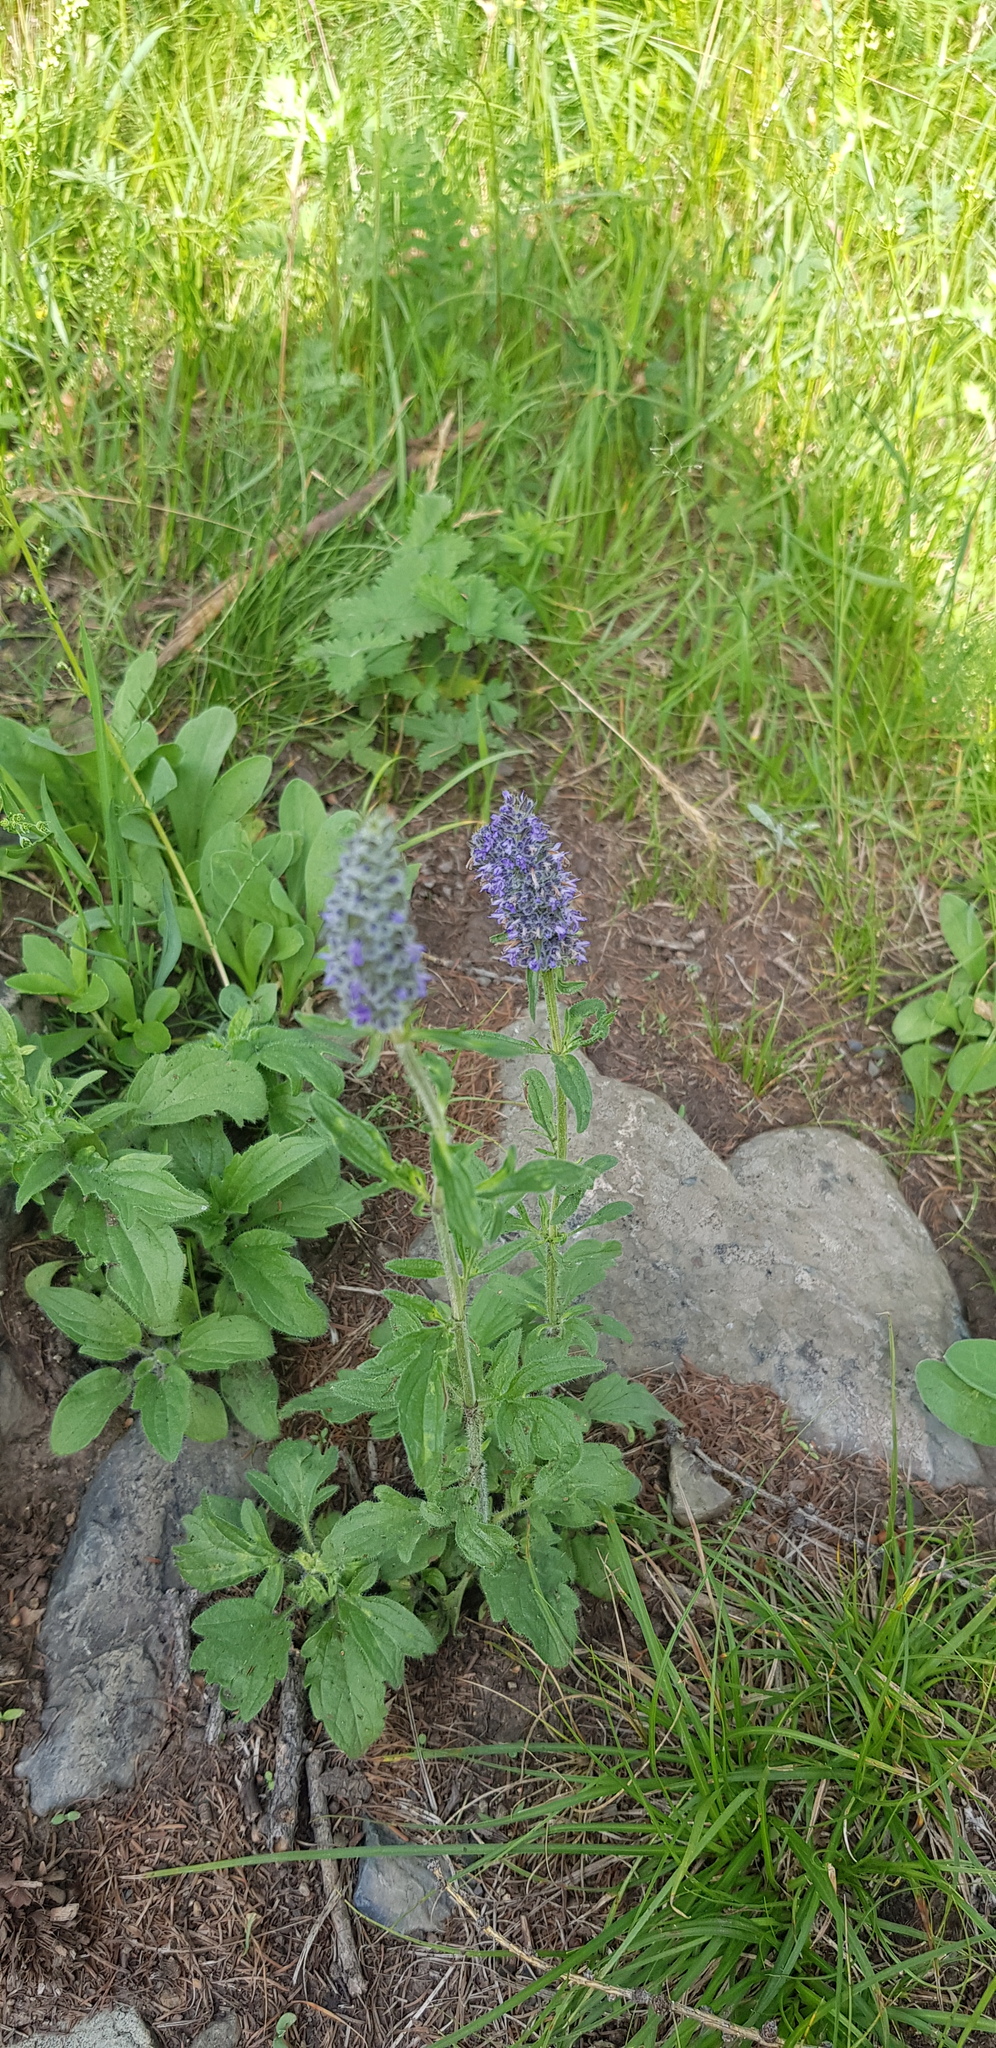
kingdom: Plantae
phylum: Tracheophyta
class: Magnoliopsida
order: Lamiales
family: Lamiaceae
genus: Nepeta
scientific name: Nepeta multifida
